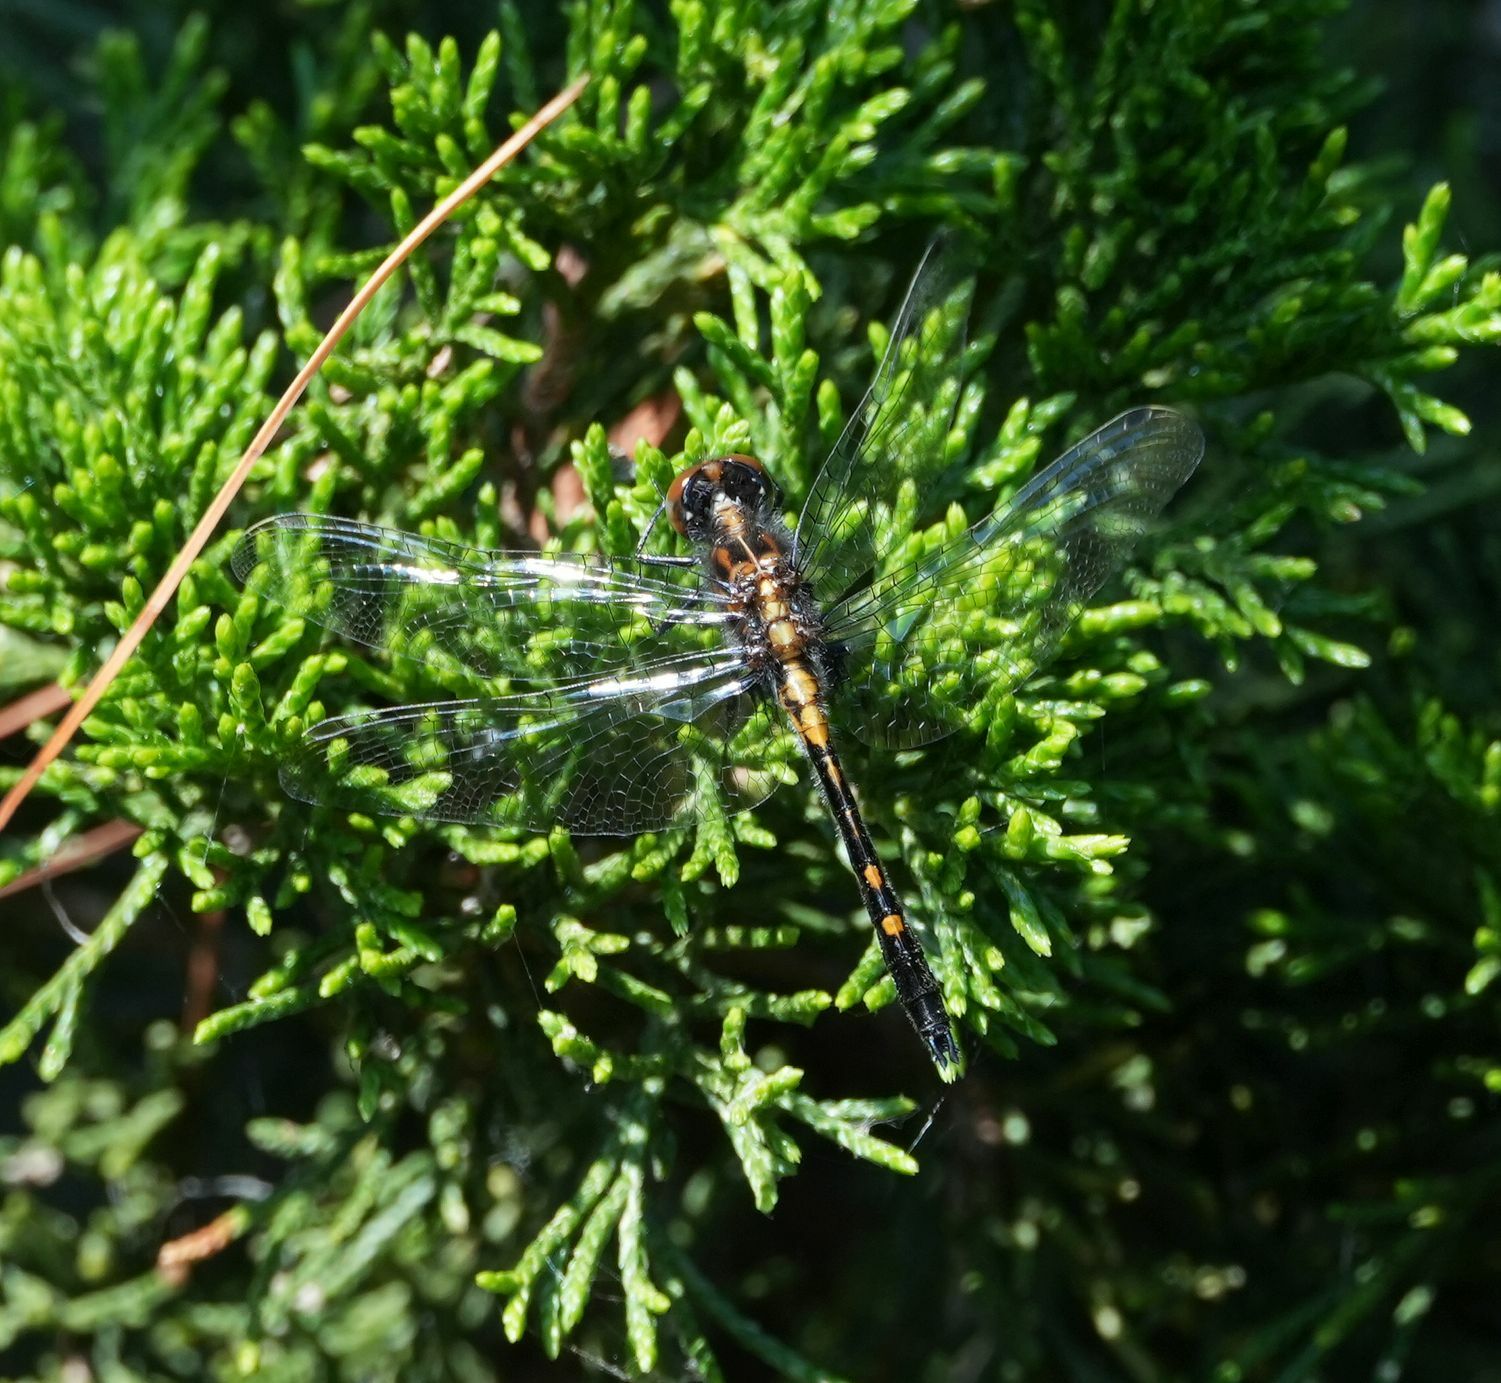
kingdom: Animalia
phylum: Arthropoda
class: Insecta
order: Odonata
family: Libellulidae
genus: Leucorrhinia
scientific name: Leucorrhinia intacta
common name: Dot-tailed whiteface
